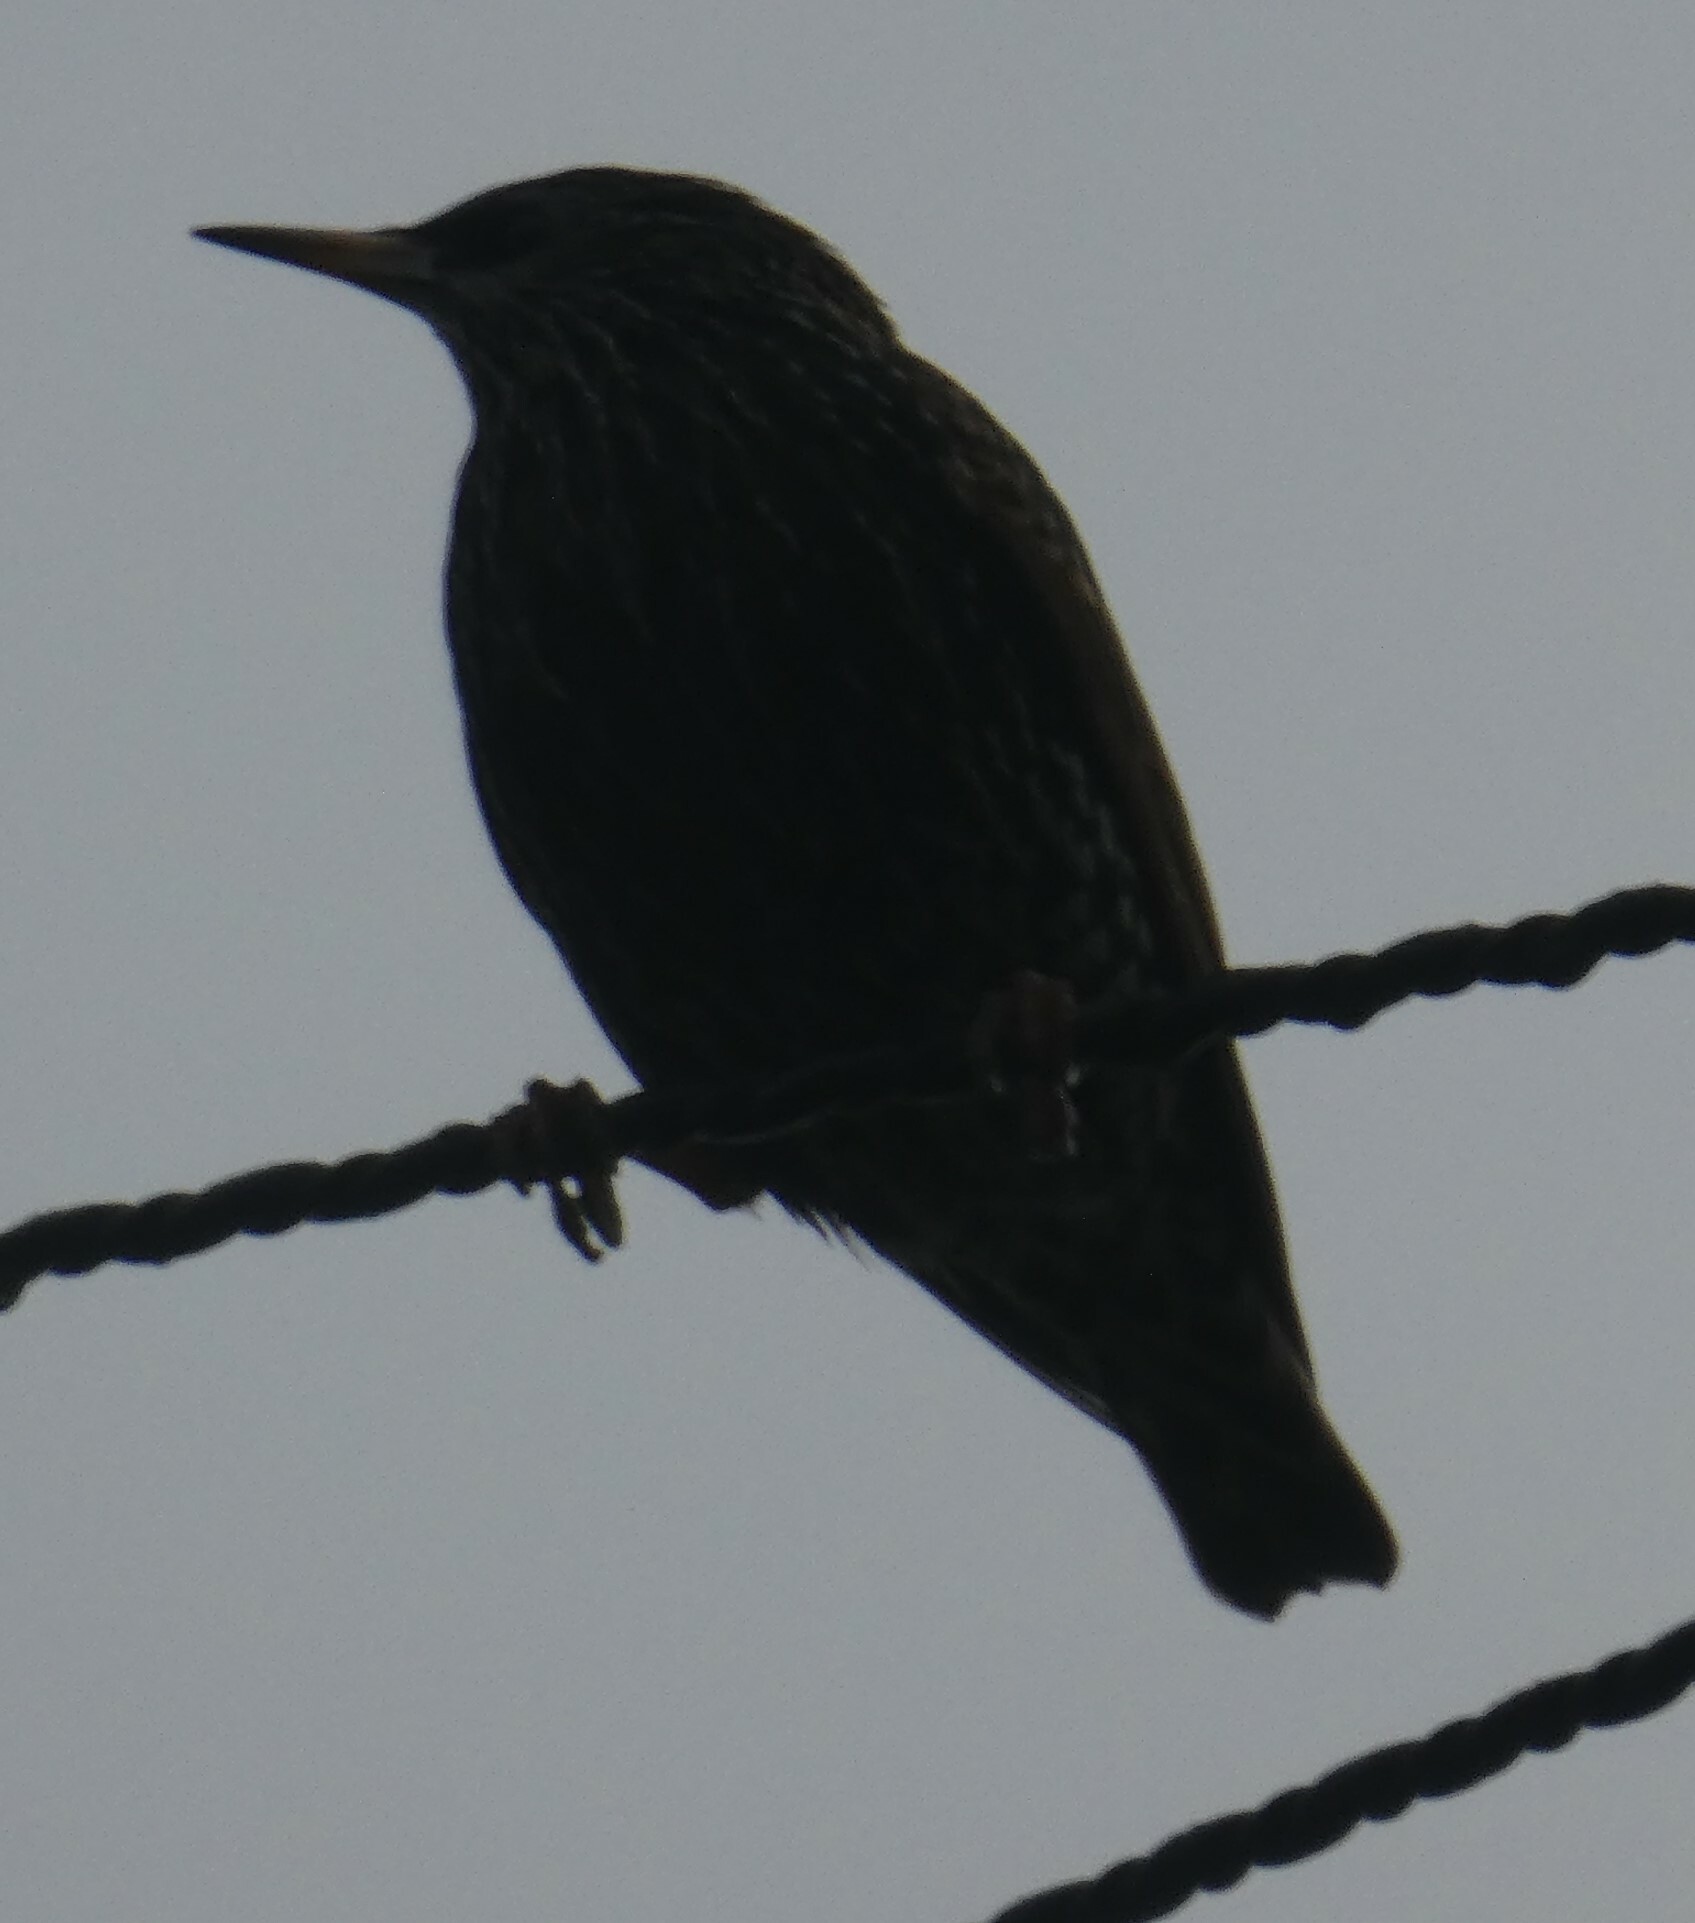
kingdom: Animalia
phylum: Chordata
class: Aves
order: Passeriformes
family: Sturnidae
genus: Sturnus
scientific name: Sturnus vulgaris
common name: Common starling
